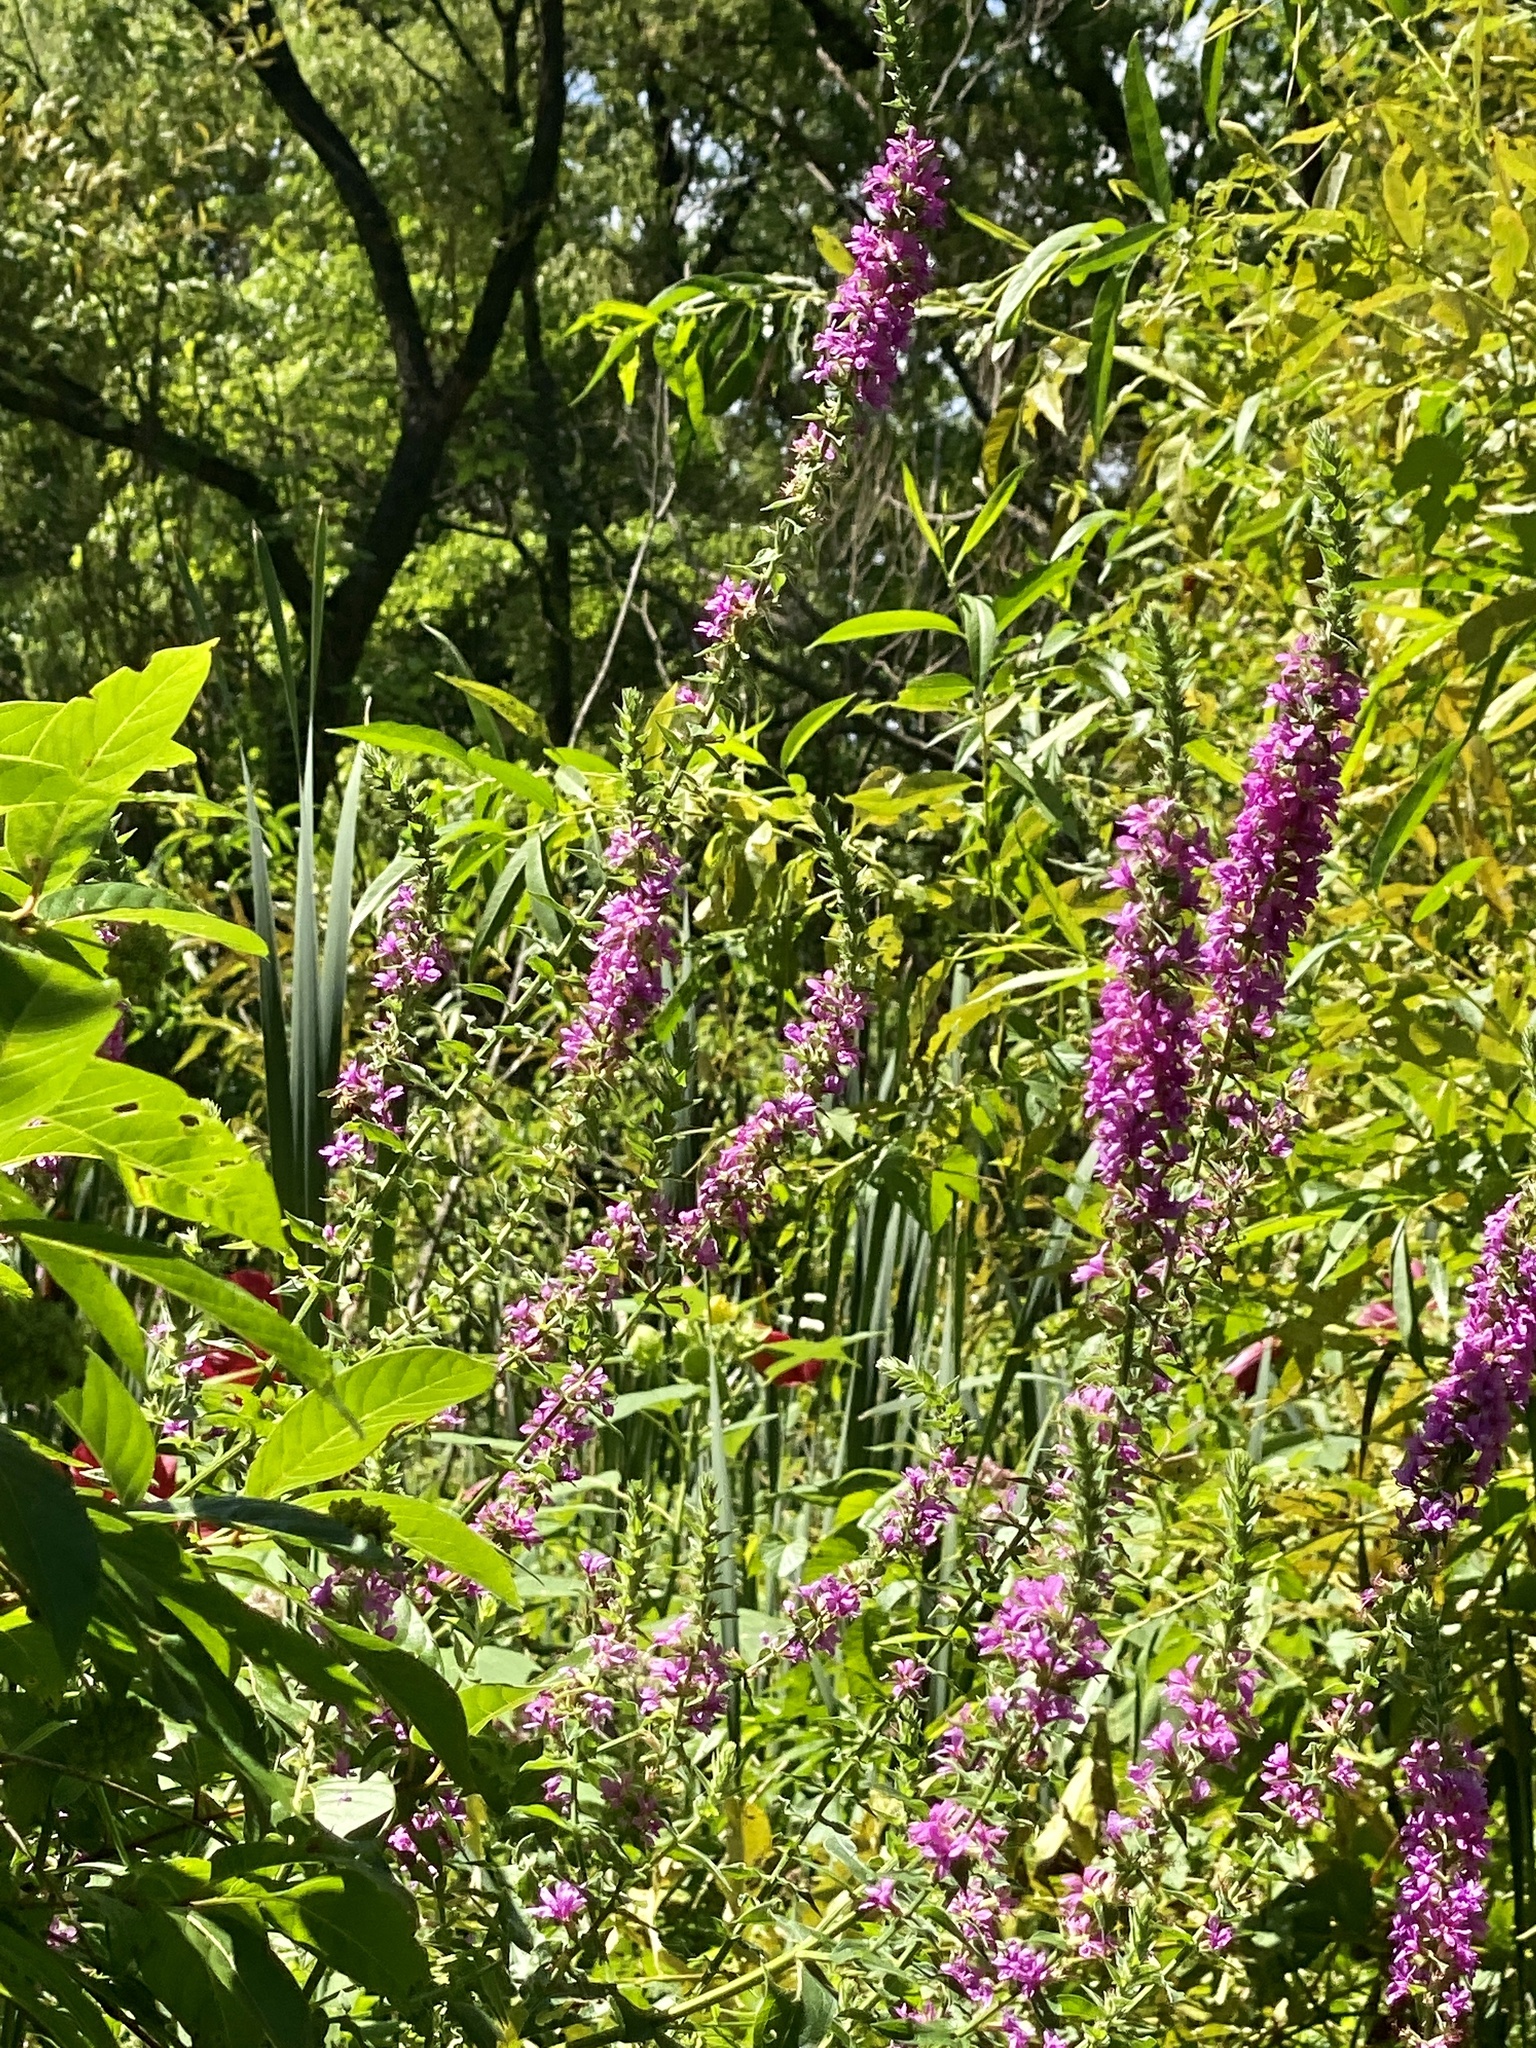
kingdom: Plantae
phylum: Tracheophyta
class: Magnoliopsida
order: Myrtales
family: Lythraceae
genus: Lythrum
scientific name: Lythrum salicaria
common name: Purple loosestrife
